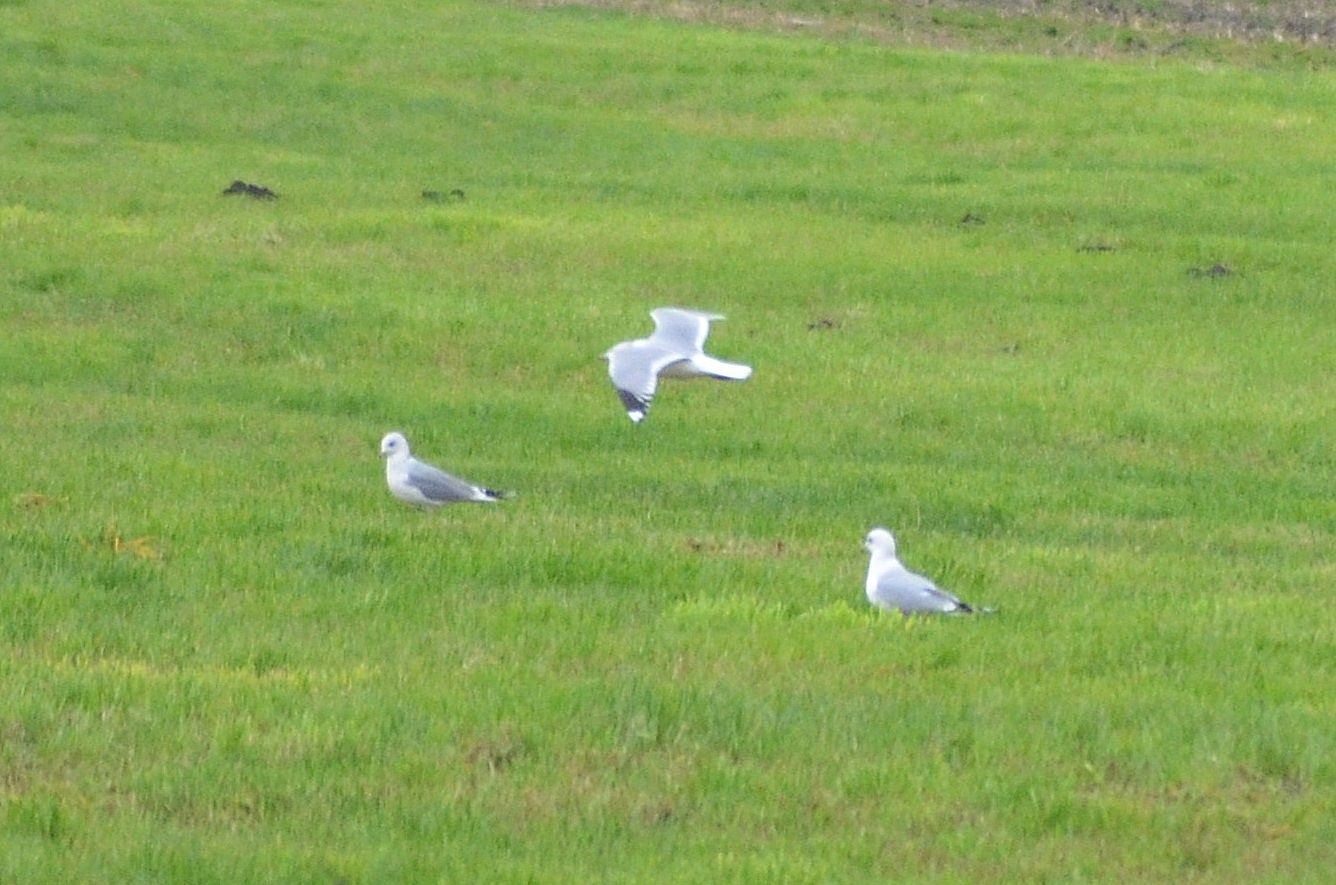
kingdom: Animalia
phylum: Chordata
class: Aves
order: Charadriiformes
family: Laridae
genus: Larus
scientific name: Larus canus
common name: Mew gull
